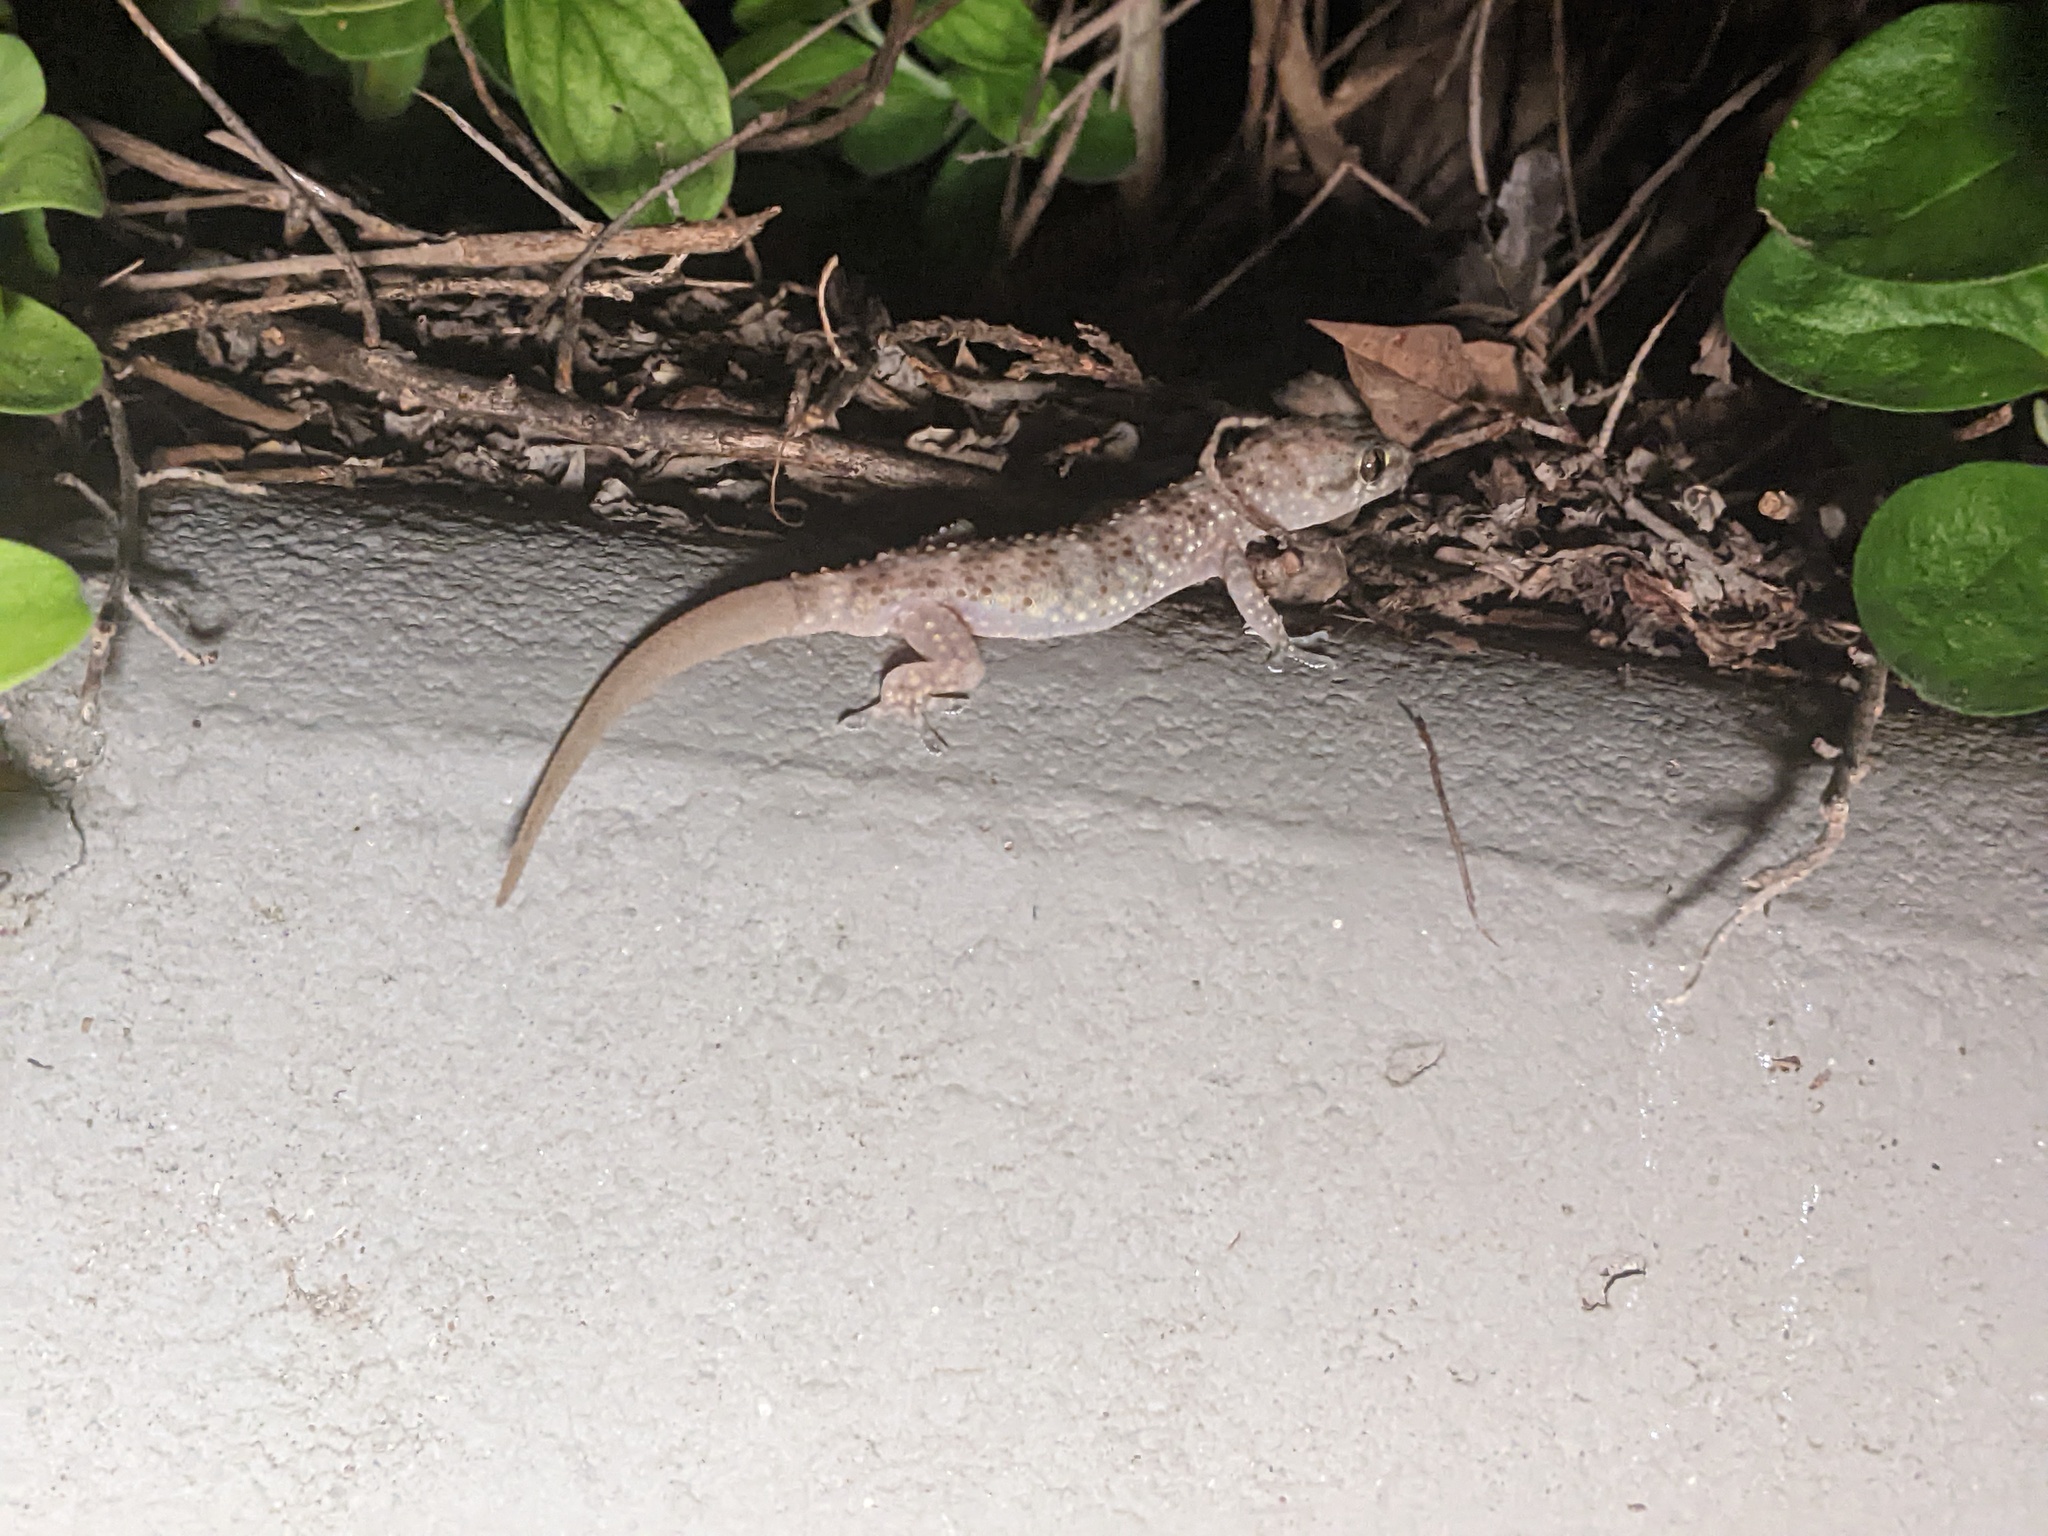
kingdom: Animalia
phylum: Chordata
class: Squamata
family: Gekkonidae
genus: Hemidactylus
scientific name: Hemidactylus turcicus
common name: Turkish gecko
